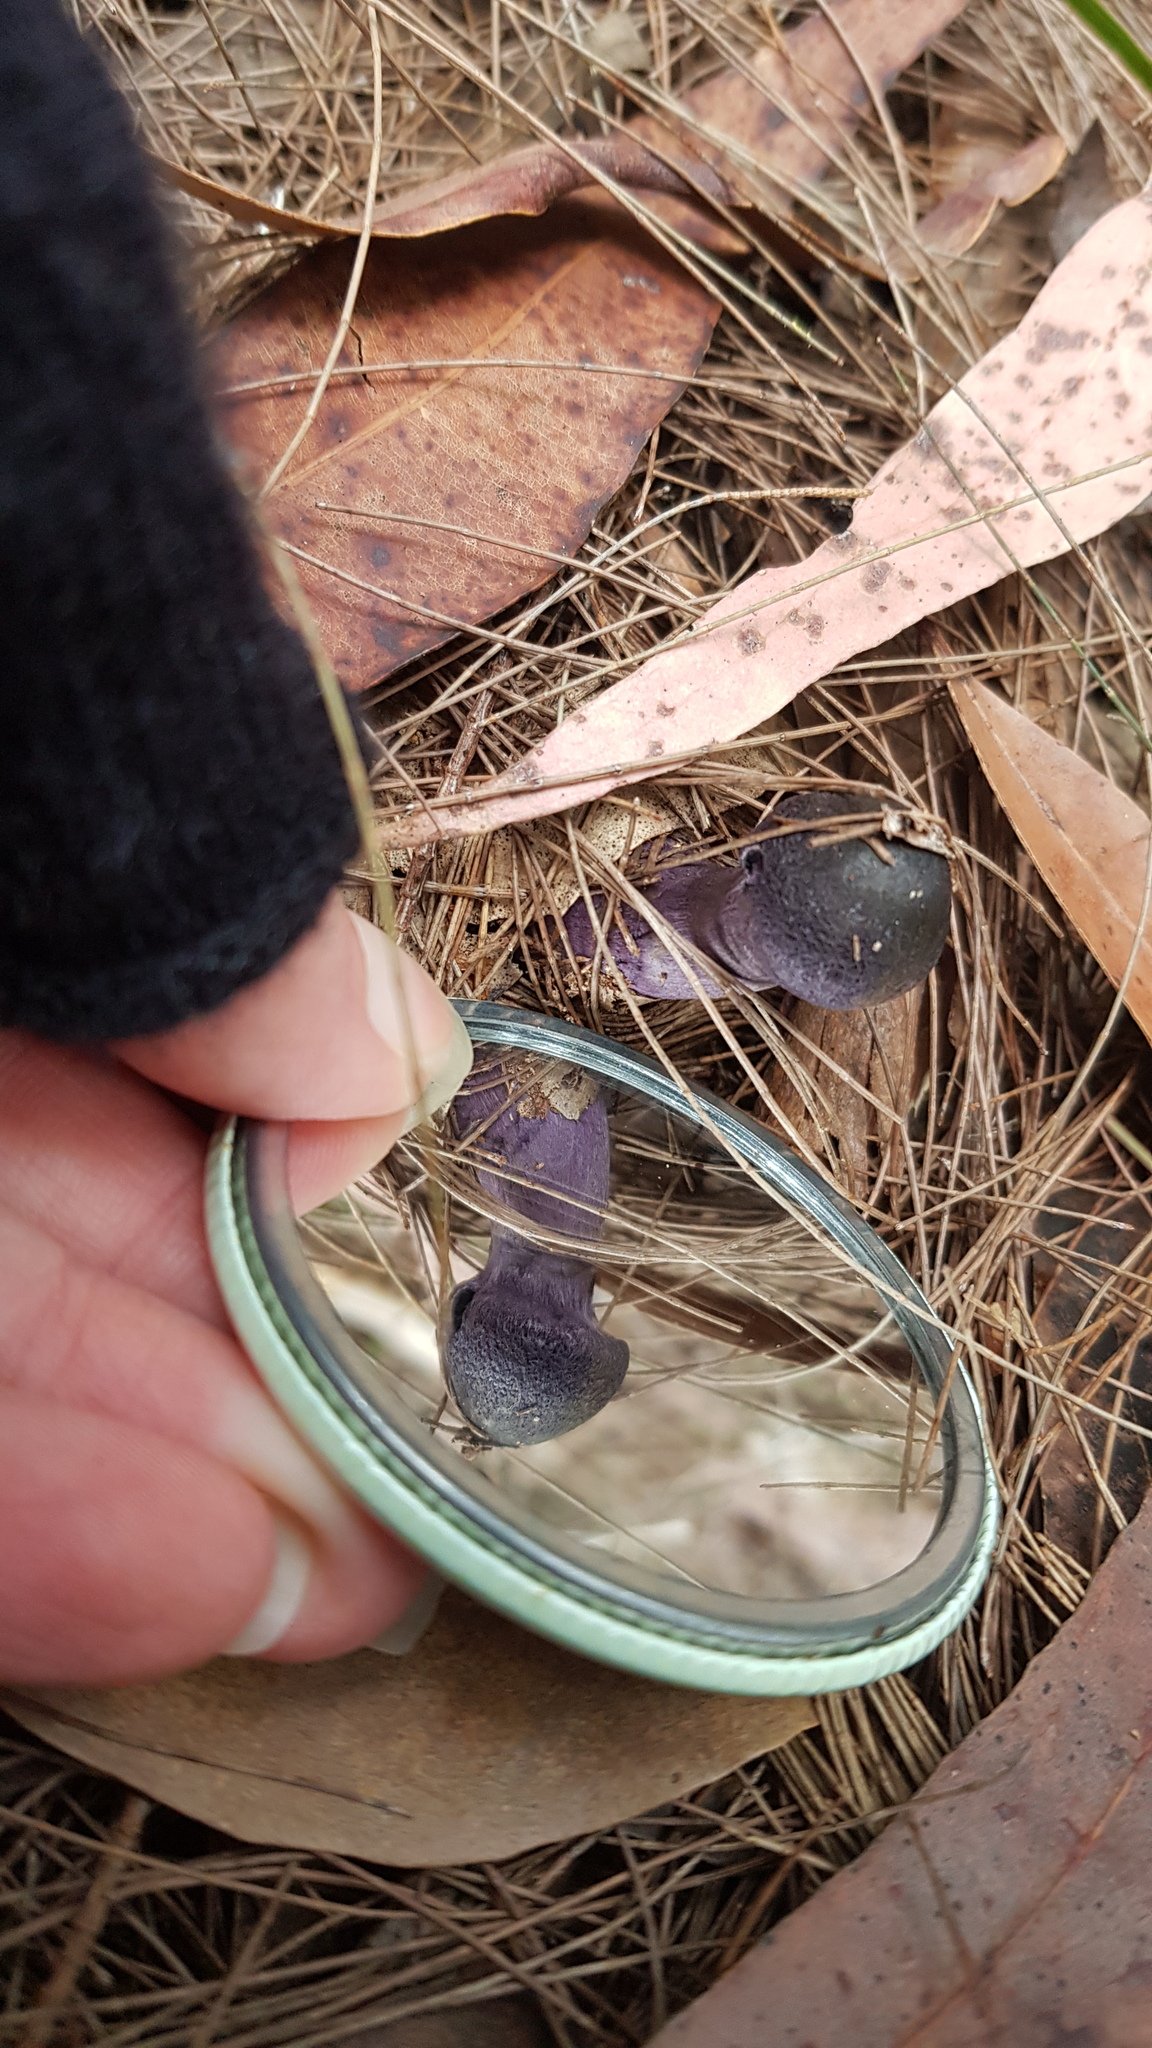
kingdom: Fungi
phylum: Basidiomycota
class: Agaricomycetes
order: Agaricales
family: Cortinariaceae
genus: Cortinarius
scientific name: Cortinarius kioloensis
